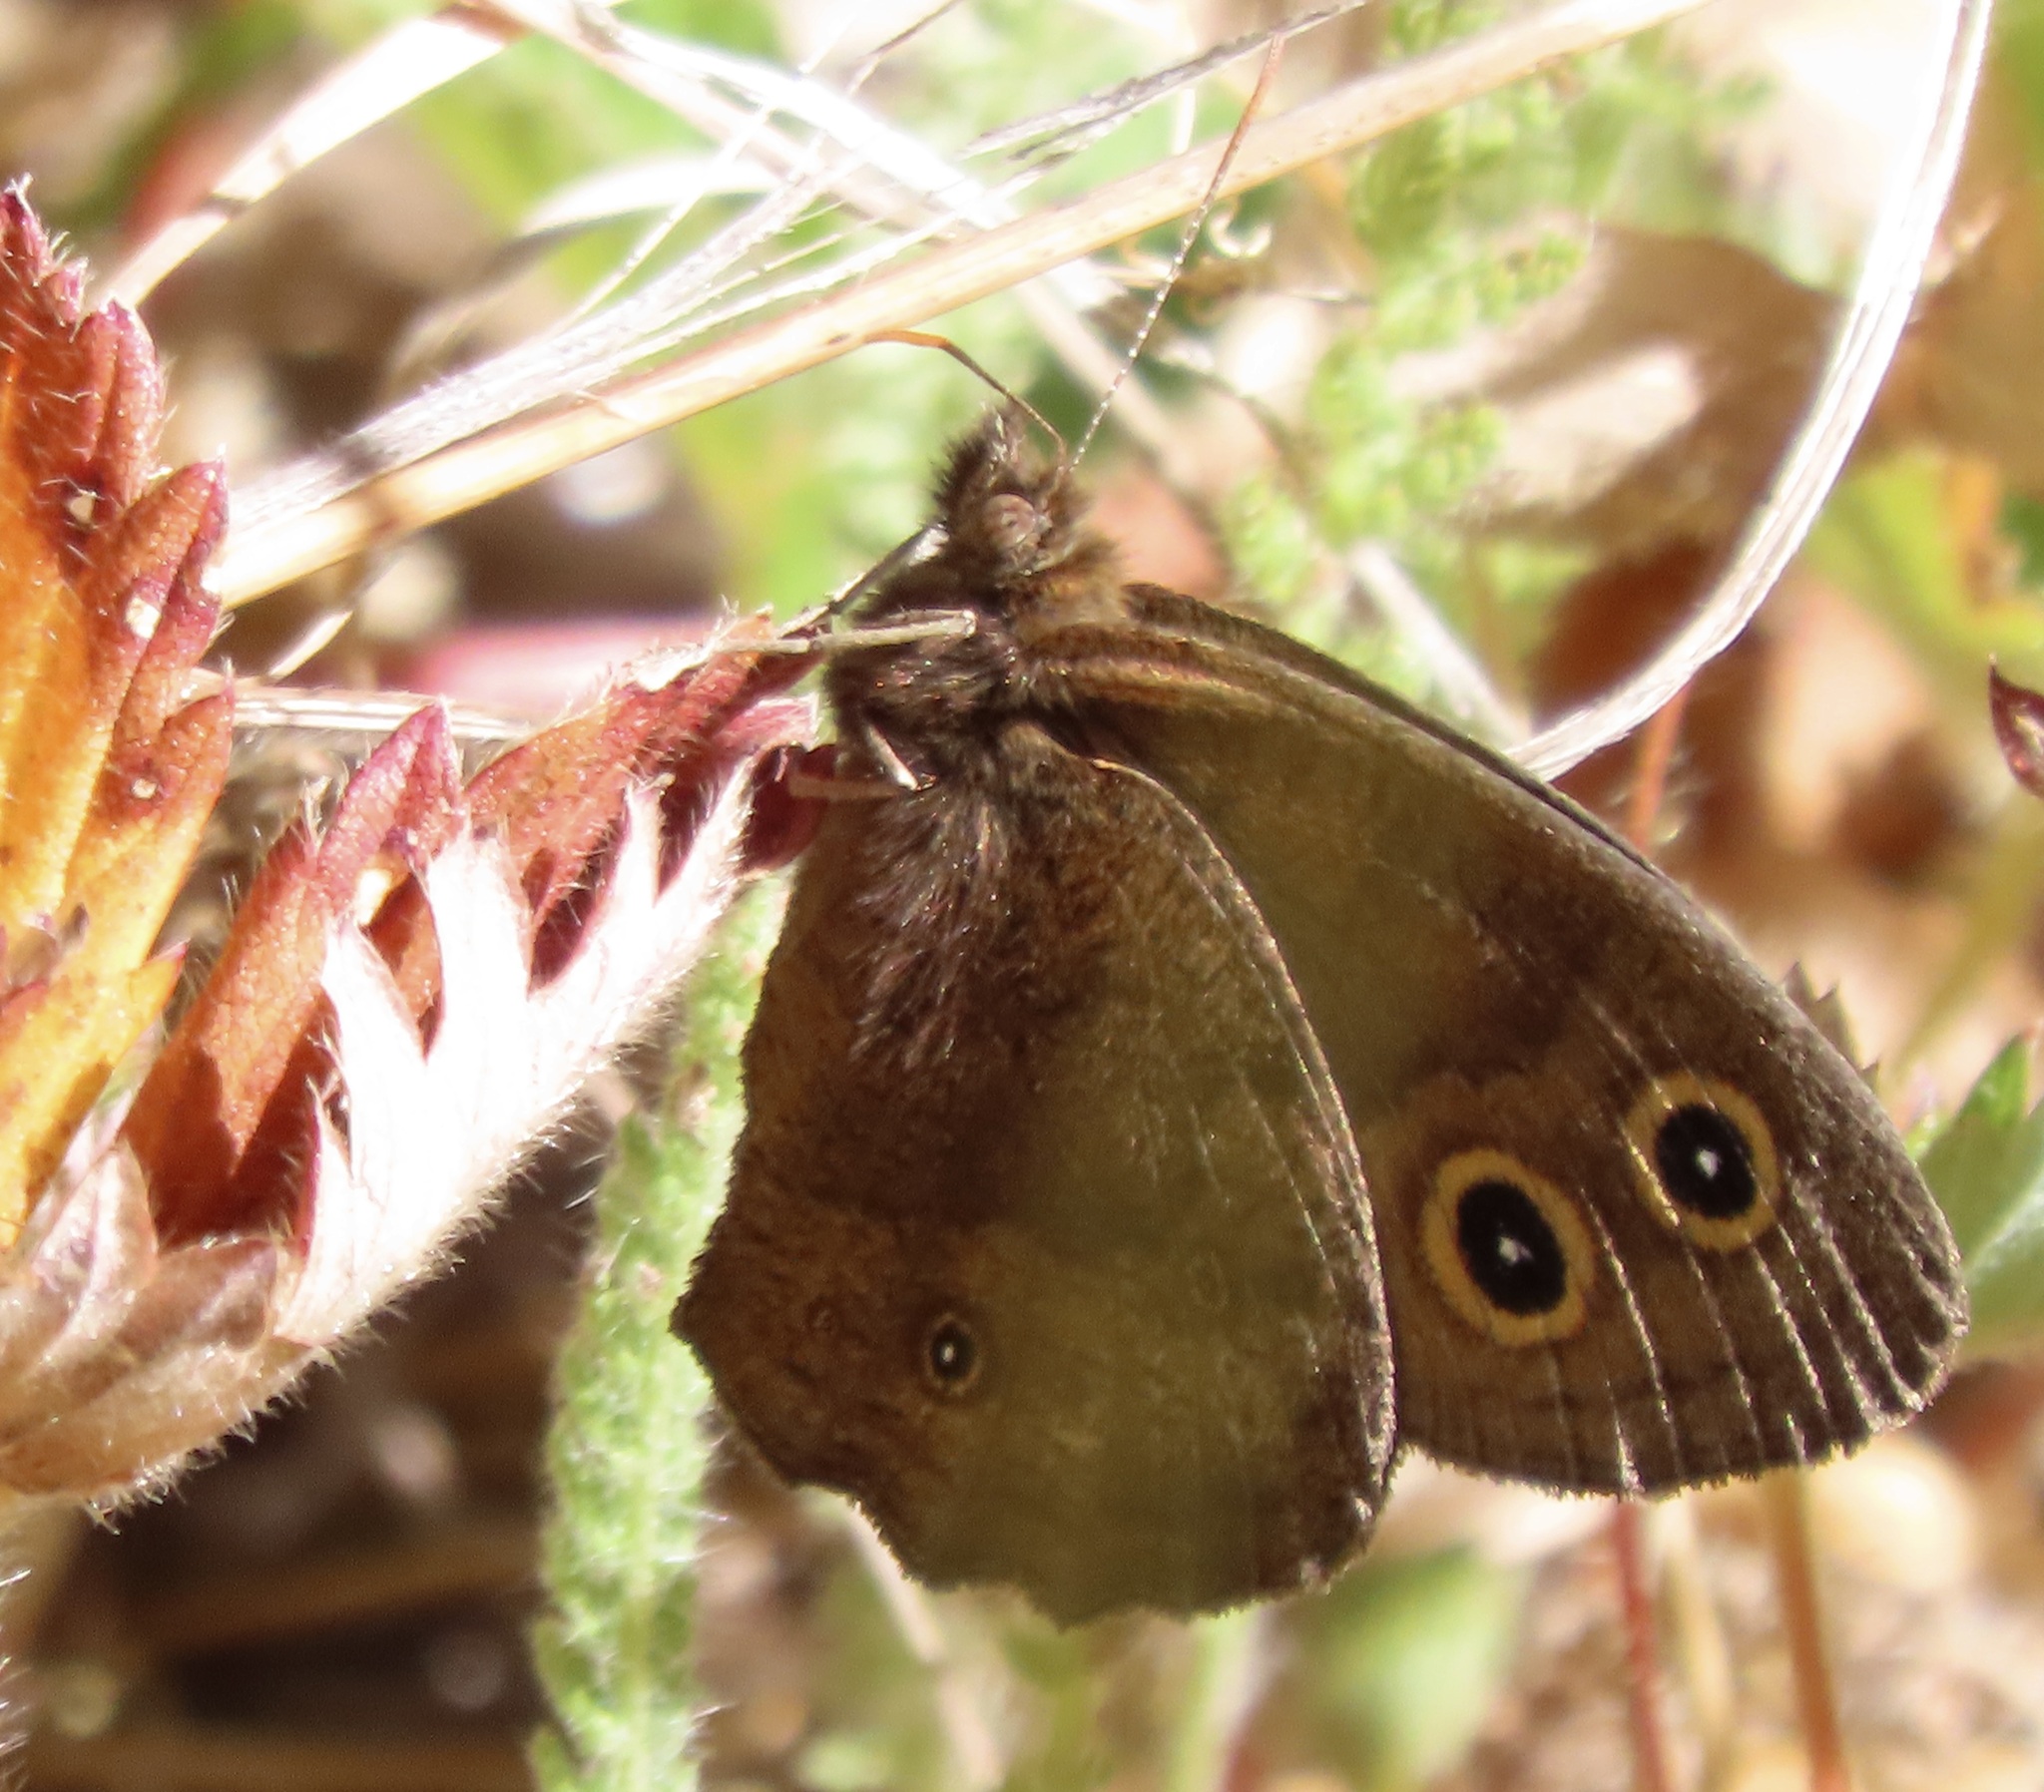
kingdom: Animalia
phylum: Arthropoda
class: Insecta
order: Lepidoptera
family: Nymphalidae
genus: Cercyonis
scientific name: Cercyonis pegala
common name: Common wood-nymph
